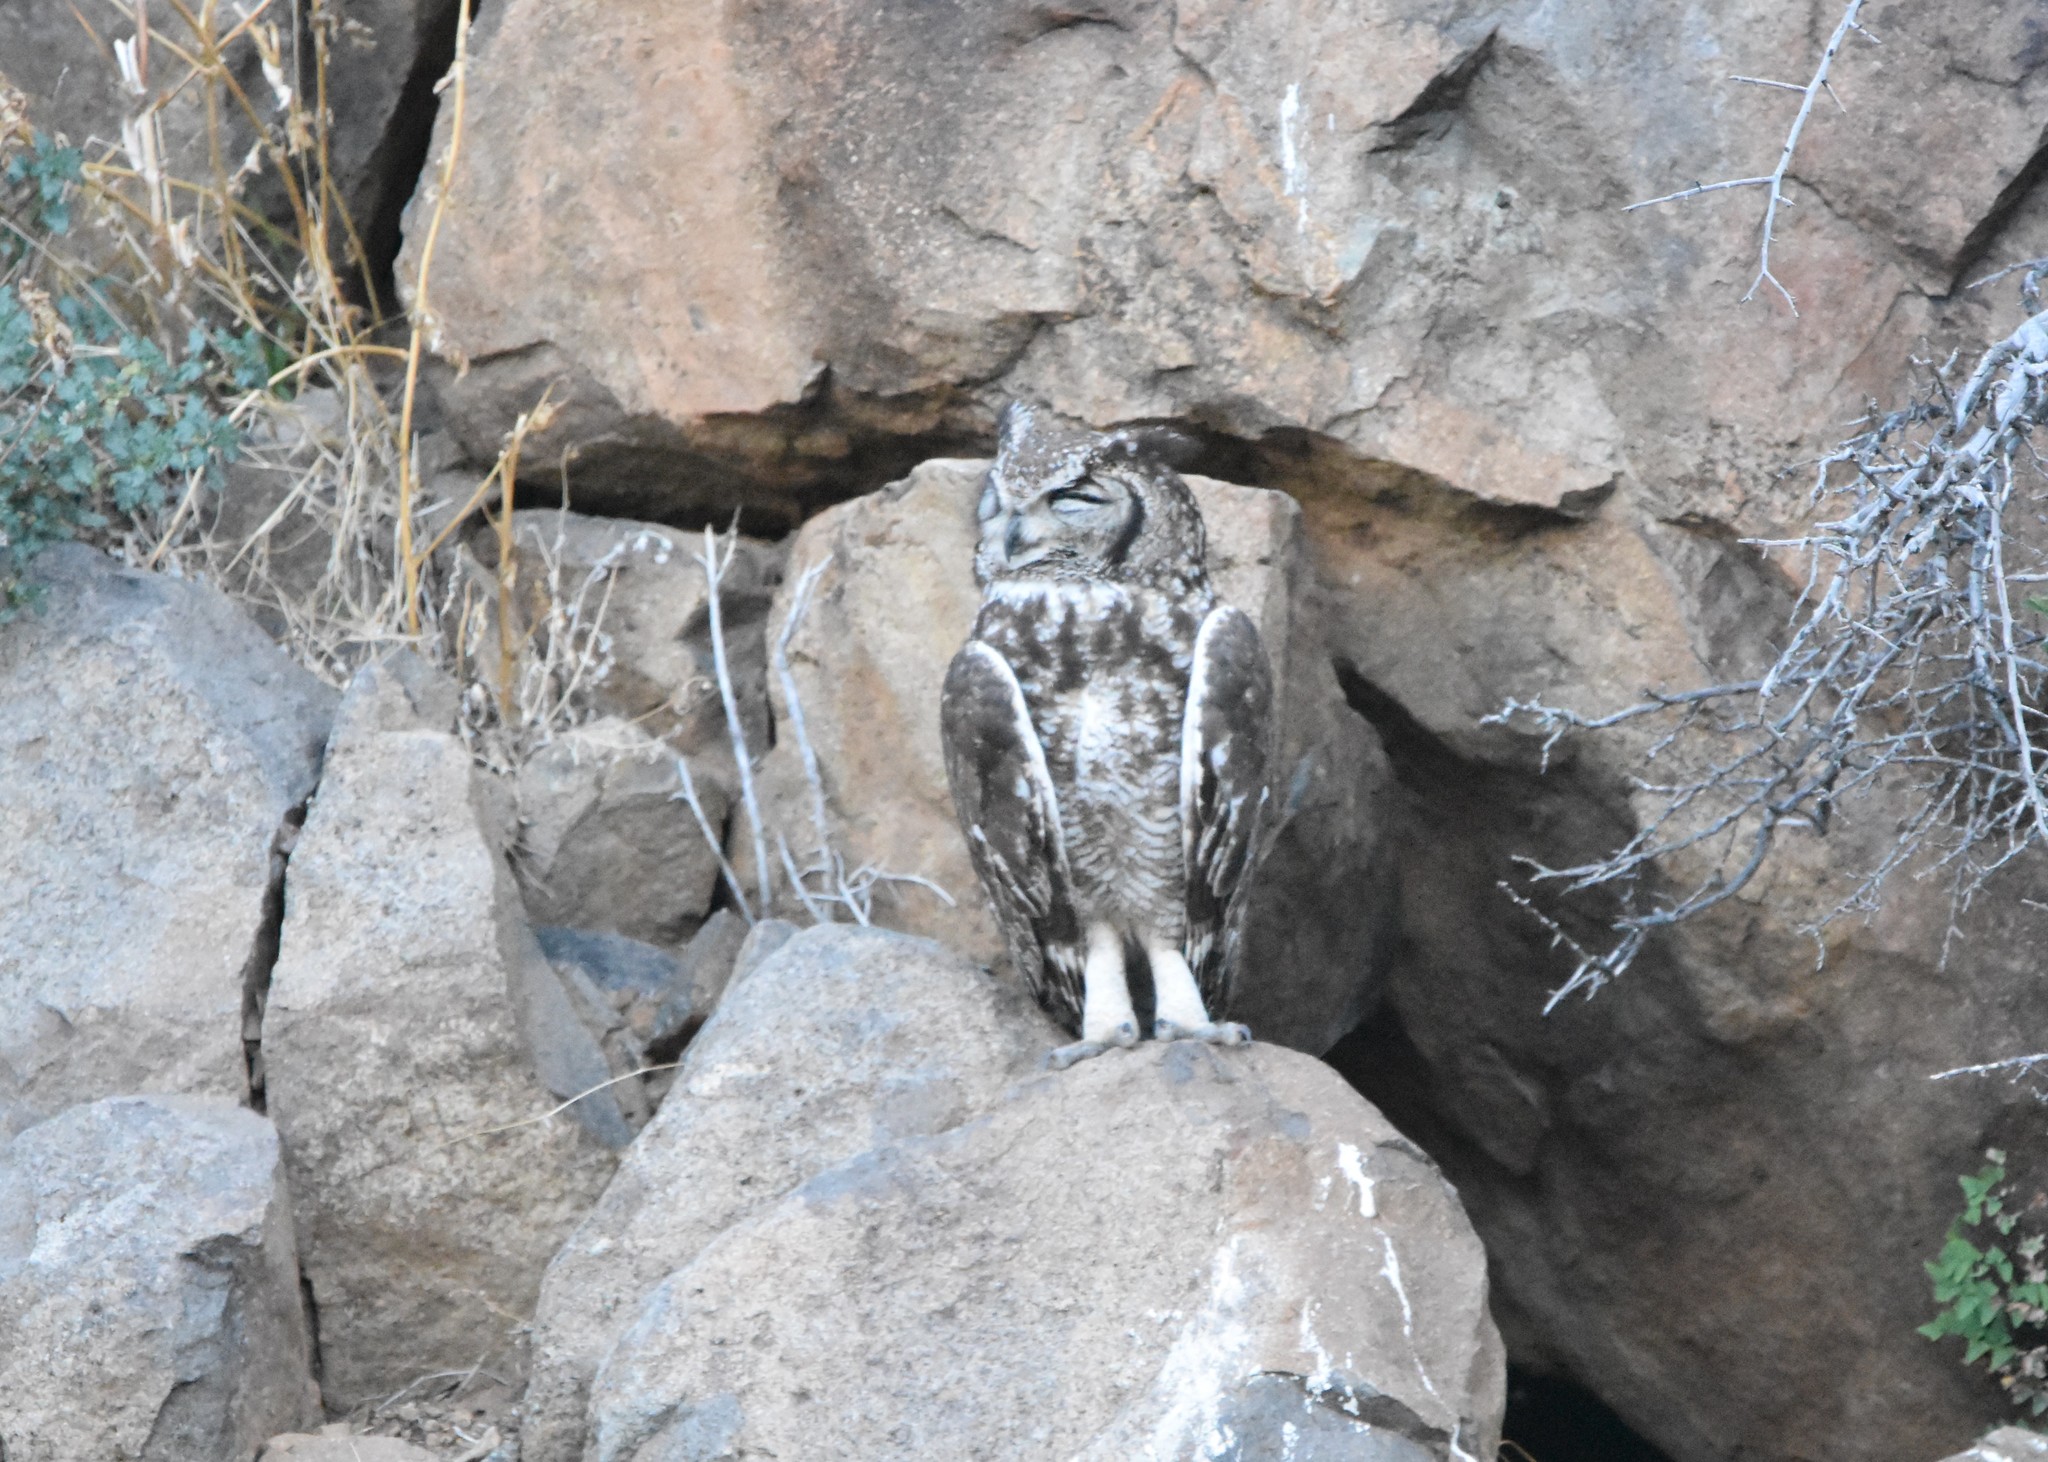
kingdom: Animalia
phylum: Chordata
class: Aves
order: Strigiformes
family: Strigidae
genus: Bubo
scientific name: Bubo africanus
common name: Spotted eagle-owl
